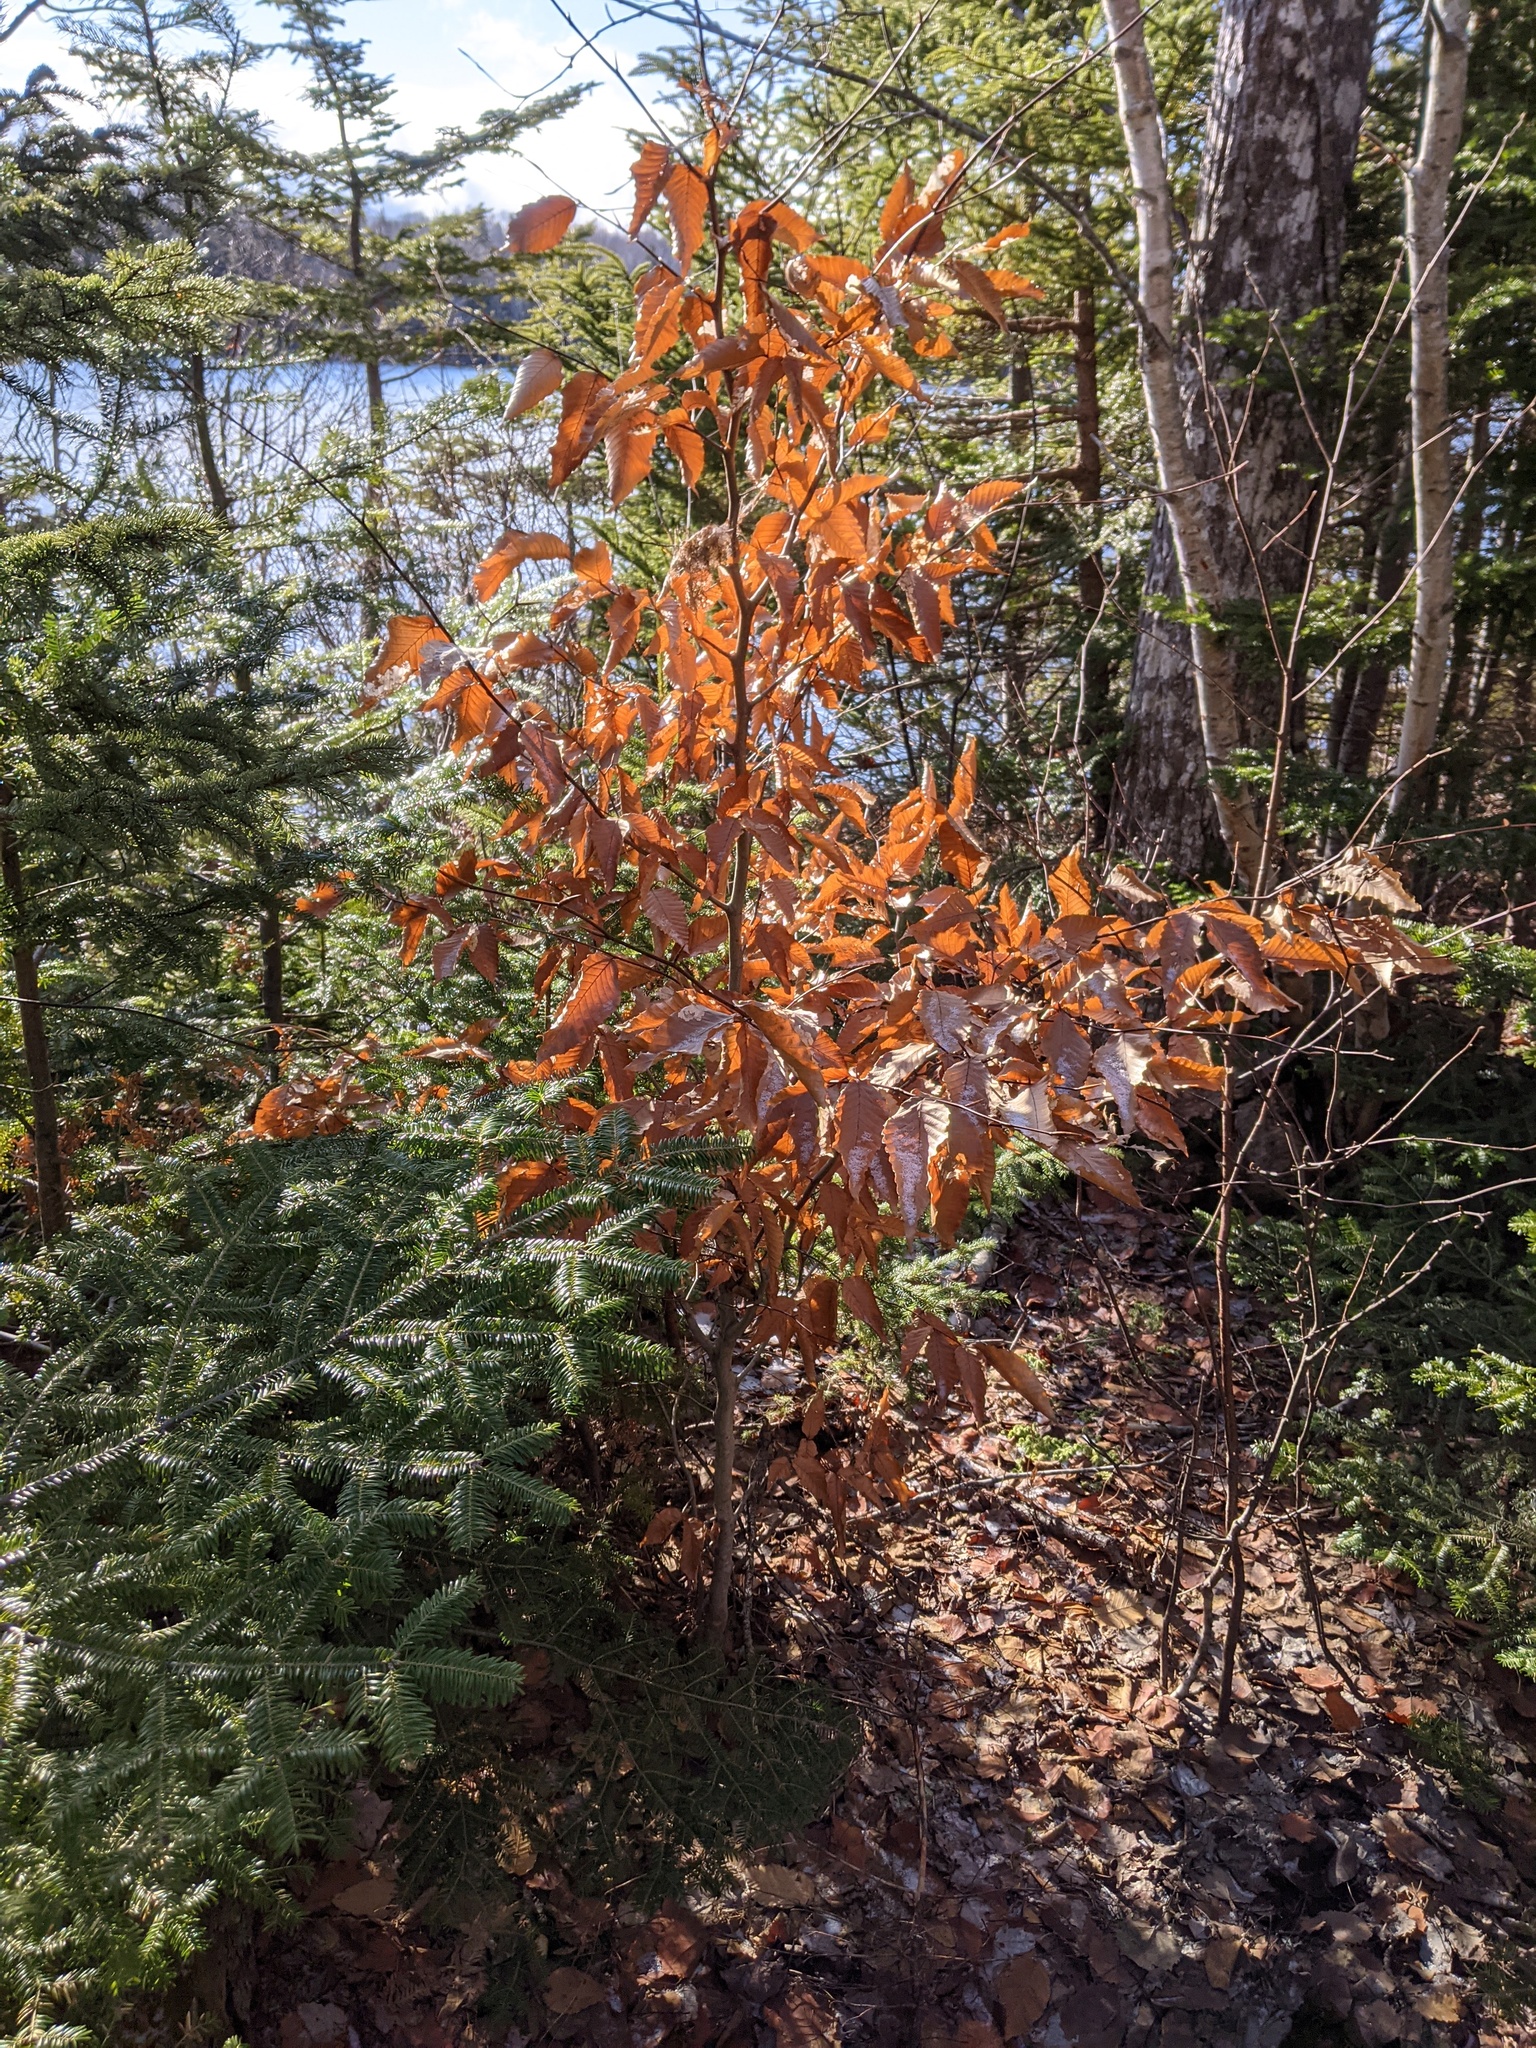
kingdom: Plantae
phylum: Tracheophyta
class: Magnoliopsida
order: Fagales
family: Fagaceae
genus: Fagus
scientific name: Fagus grandifolia
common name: American beech
